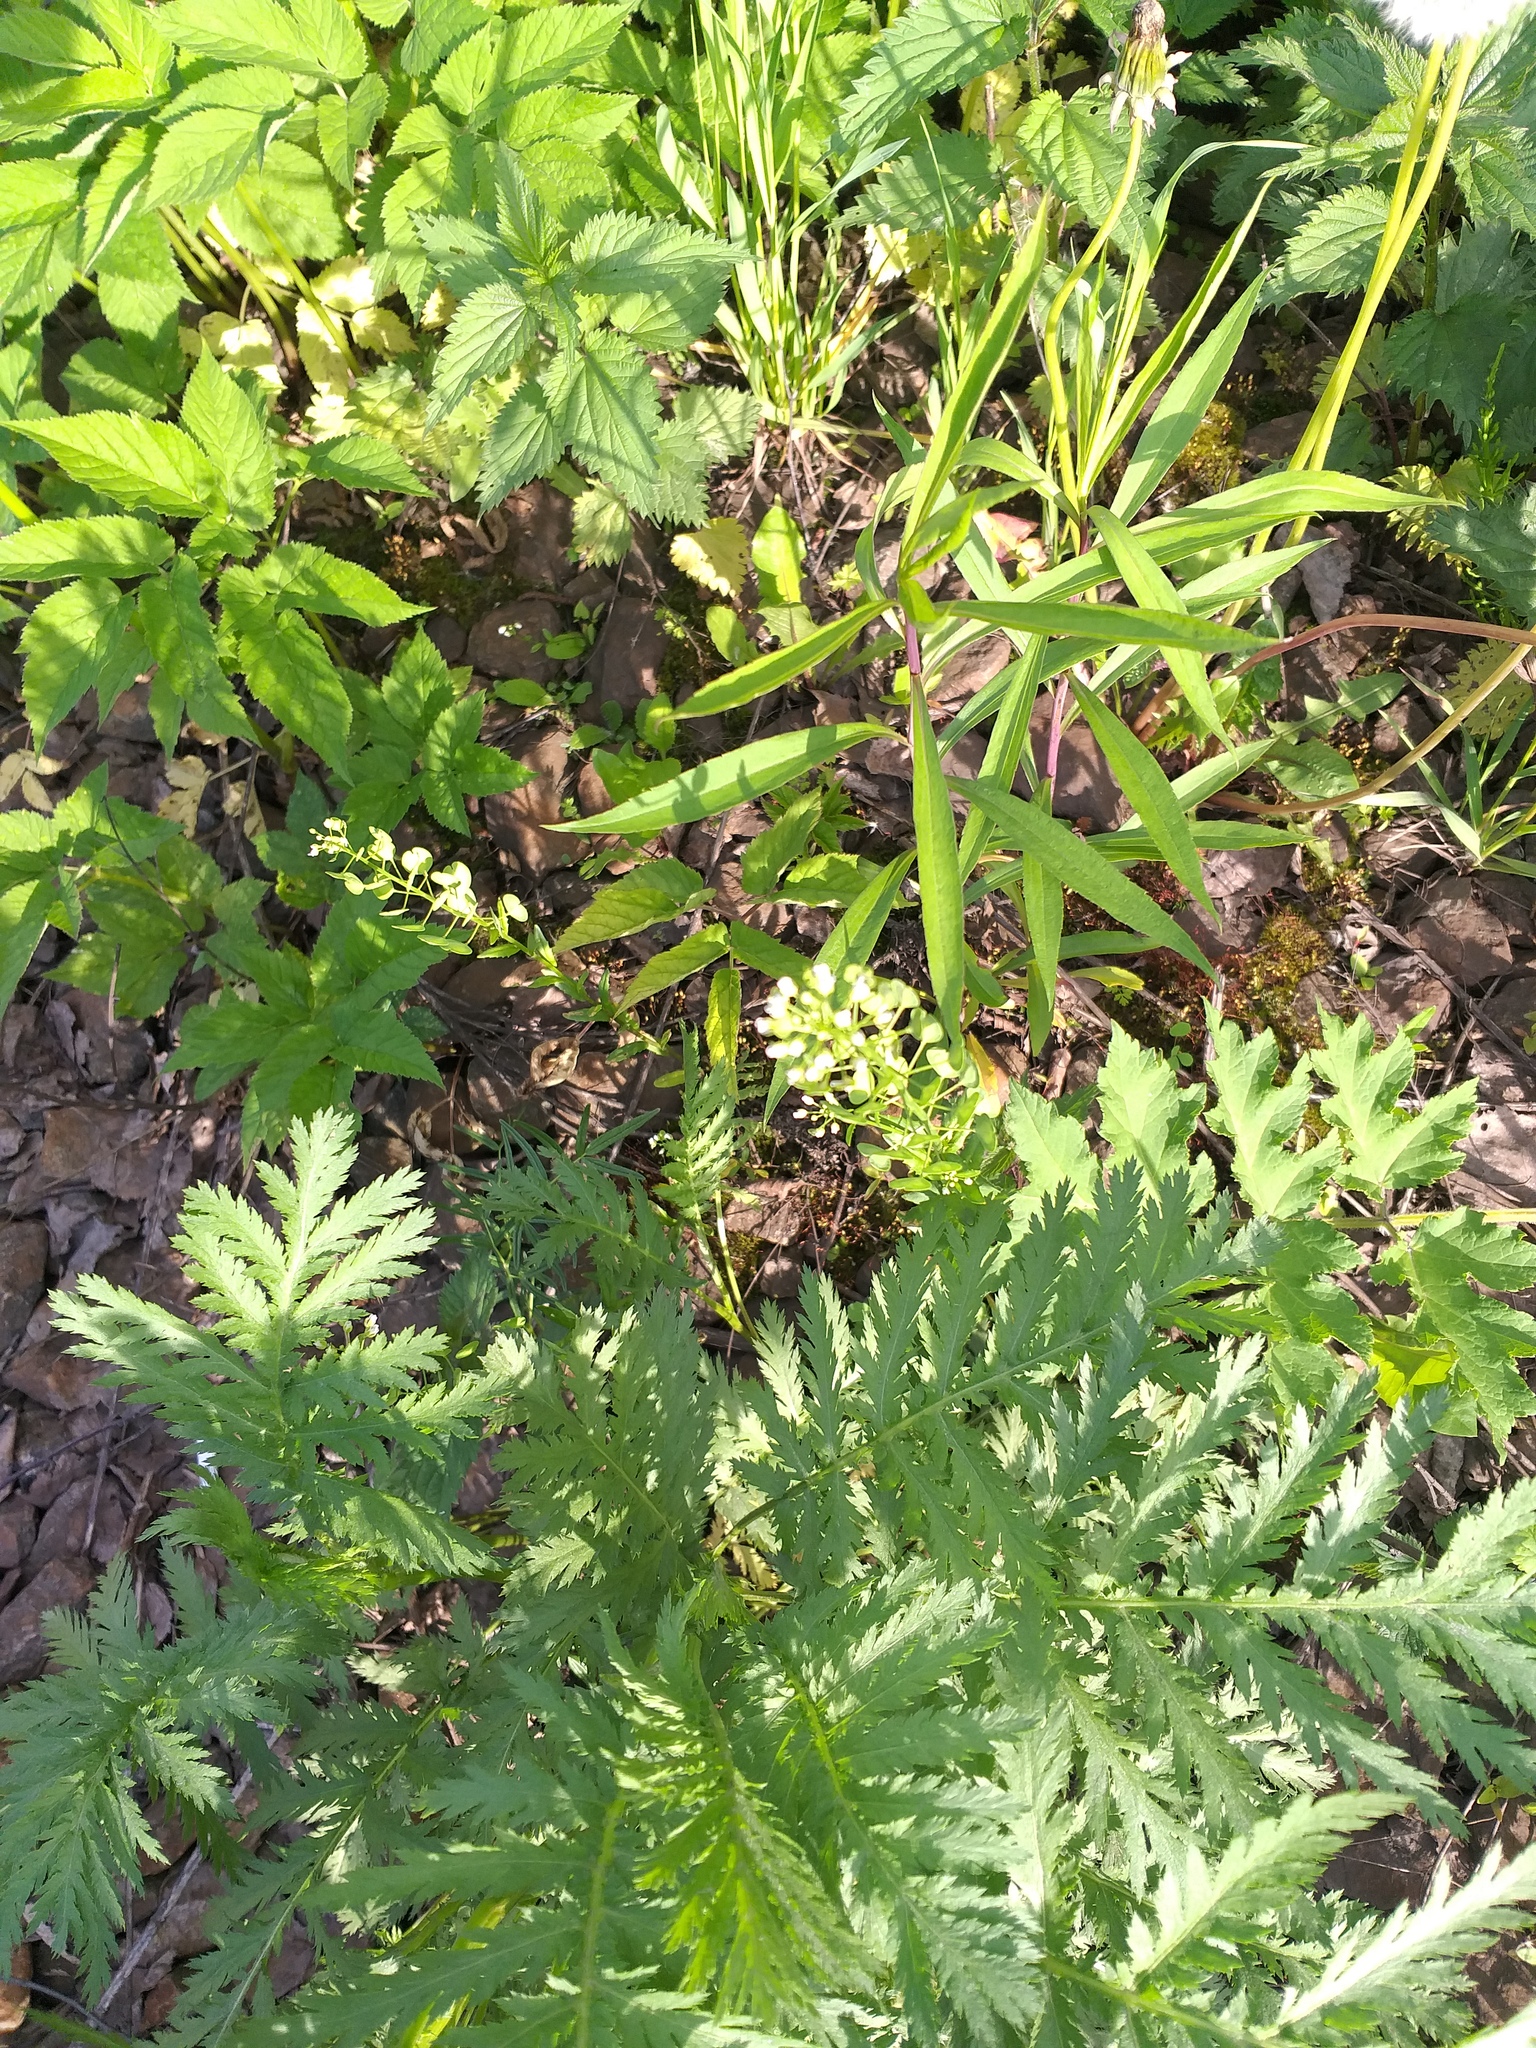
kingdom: Plantae
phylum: Tracheophyta
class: Magnoliopsida
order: Brassicales
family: Brassicaceae
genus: Thlaspi
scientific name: Thlaspi arvense
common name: Field pennycress
